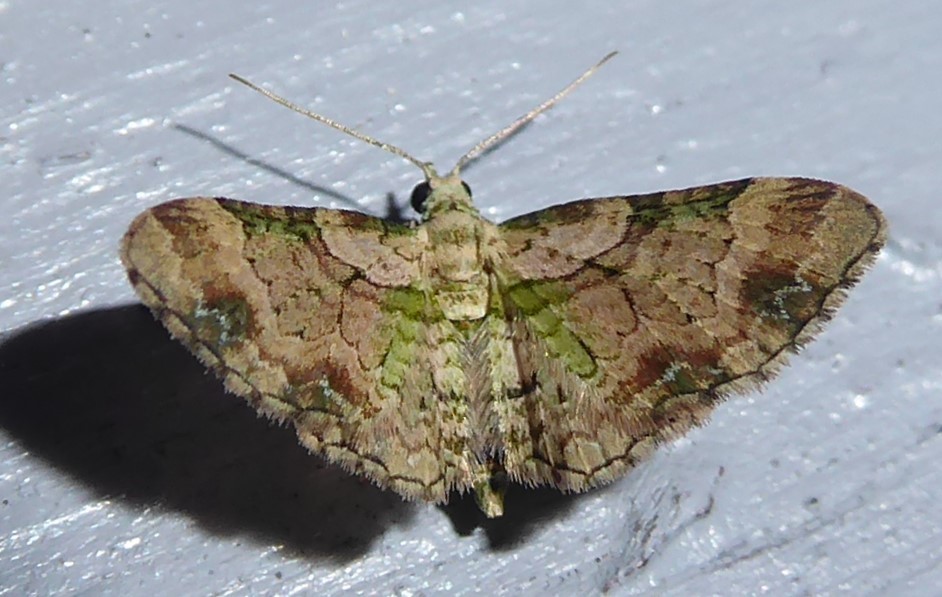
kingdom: Animalia
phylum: Arthropoda
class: Insecta
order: Lepidoptera
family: Geometridae
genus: Chloroclystis
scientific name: Chloroclystis
